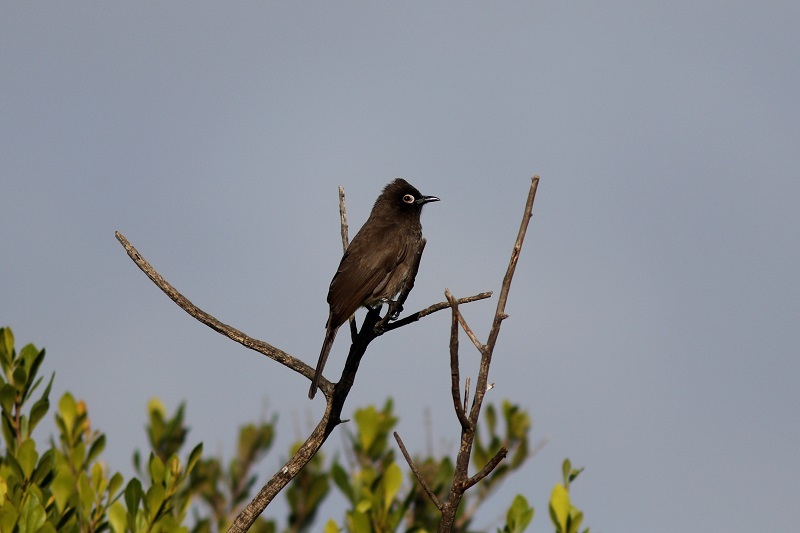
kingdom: Animalia
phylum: Chordata
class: Aves
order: Passeriformes
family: Pycnonotidae
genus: Pycnonotus
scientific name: Pycnonotus capensis
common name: Cape bulbul
